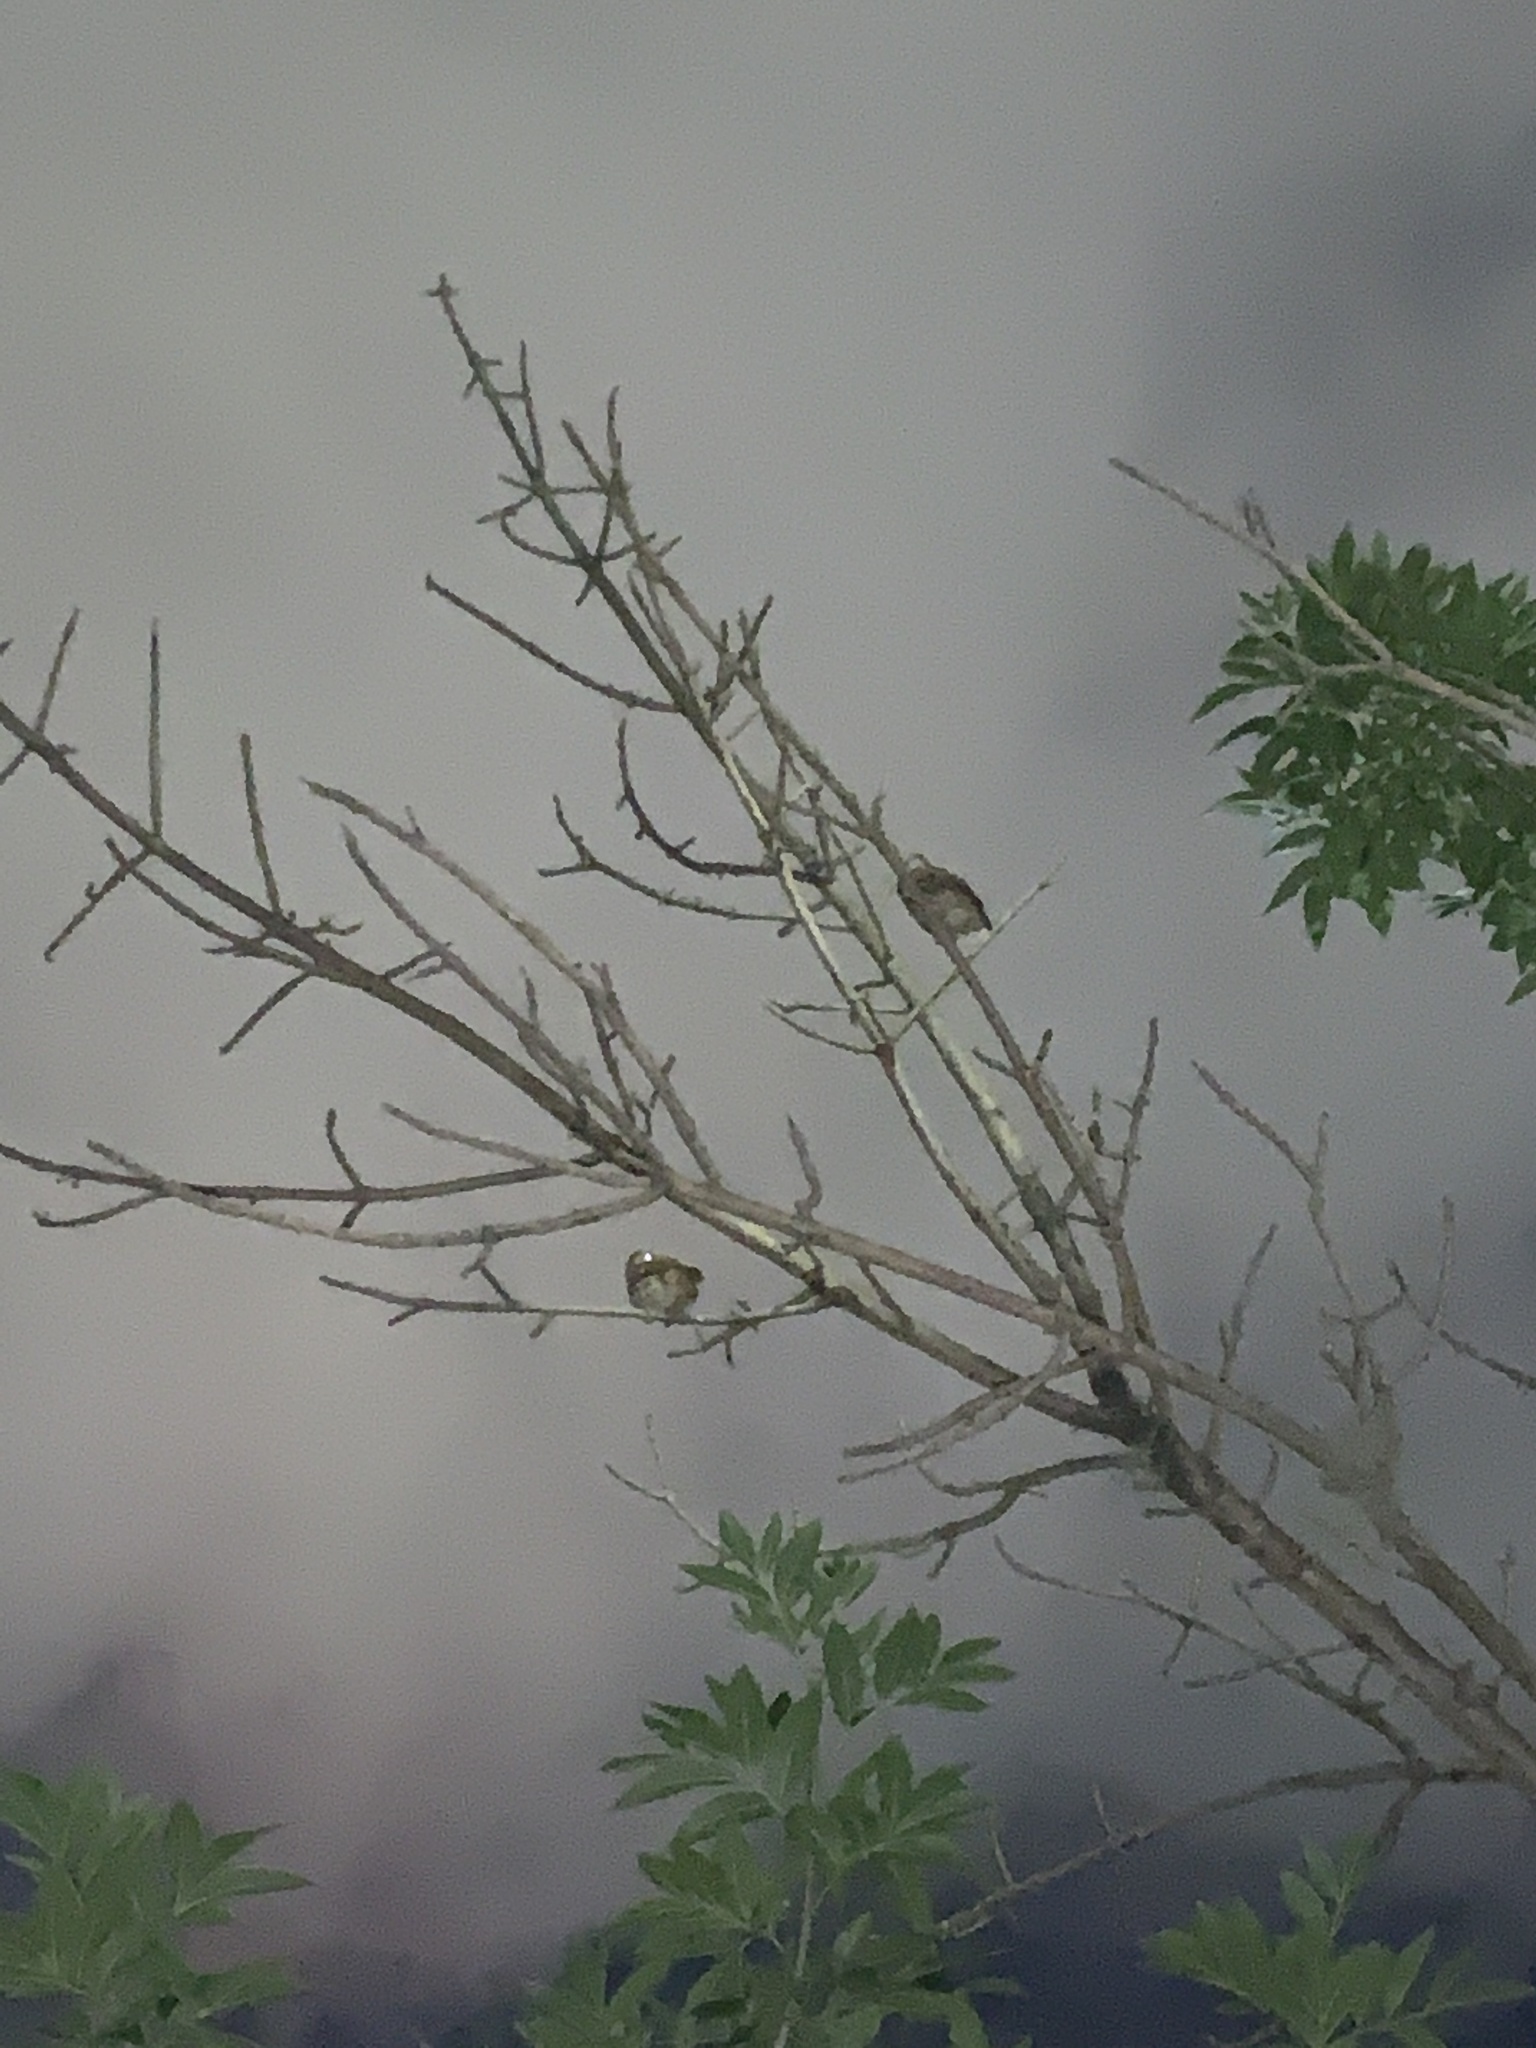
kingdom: Animalia
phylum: Chordata
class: Aves
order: Strigiformes
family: Strigidae
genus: Glaucidium
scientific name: Glaucidium brasilianum
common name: Ferruginous pygmy-owl
